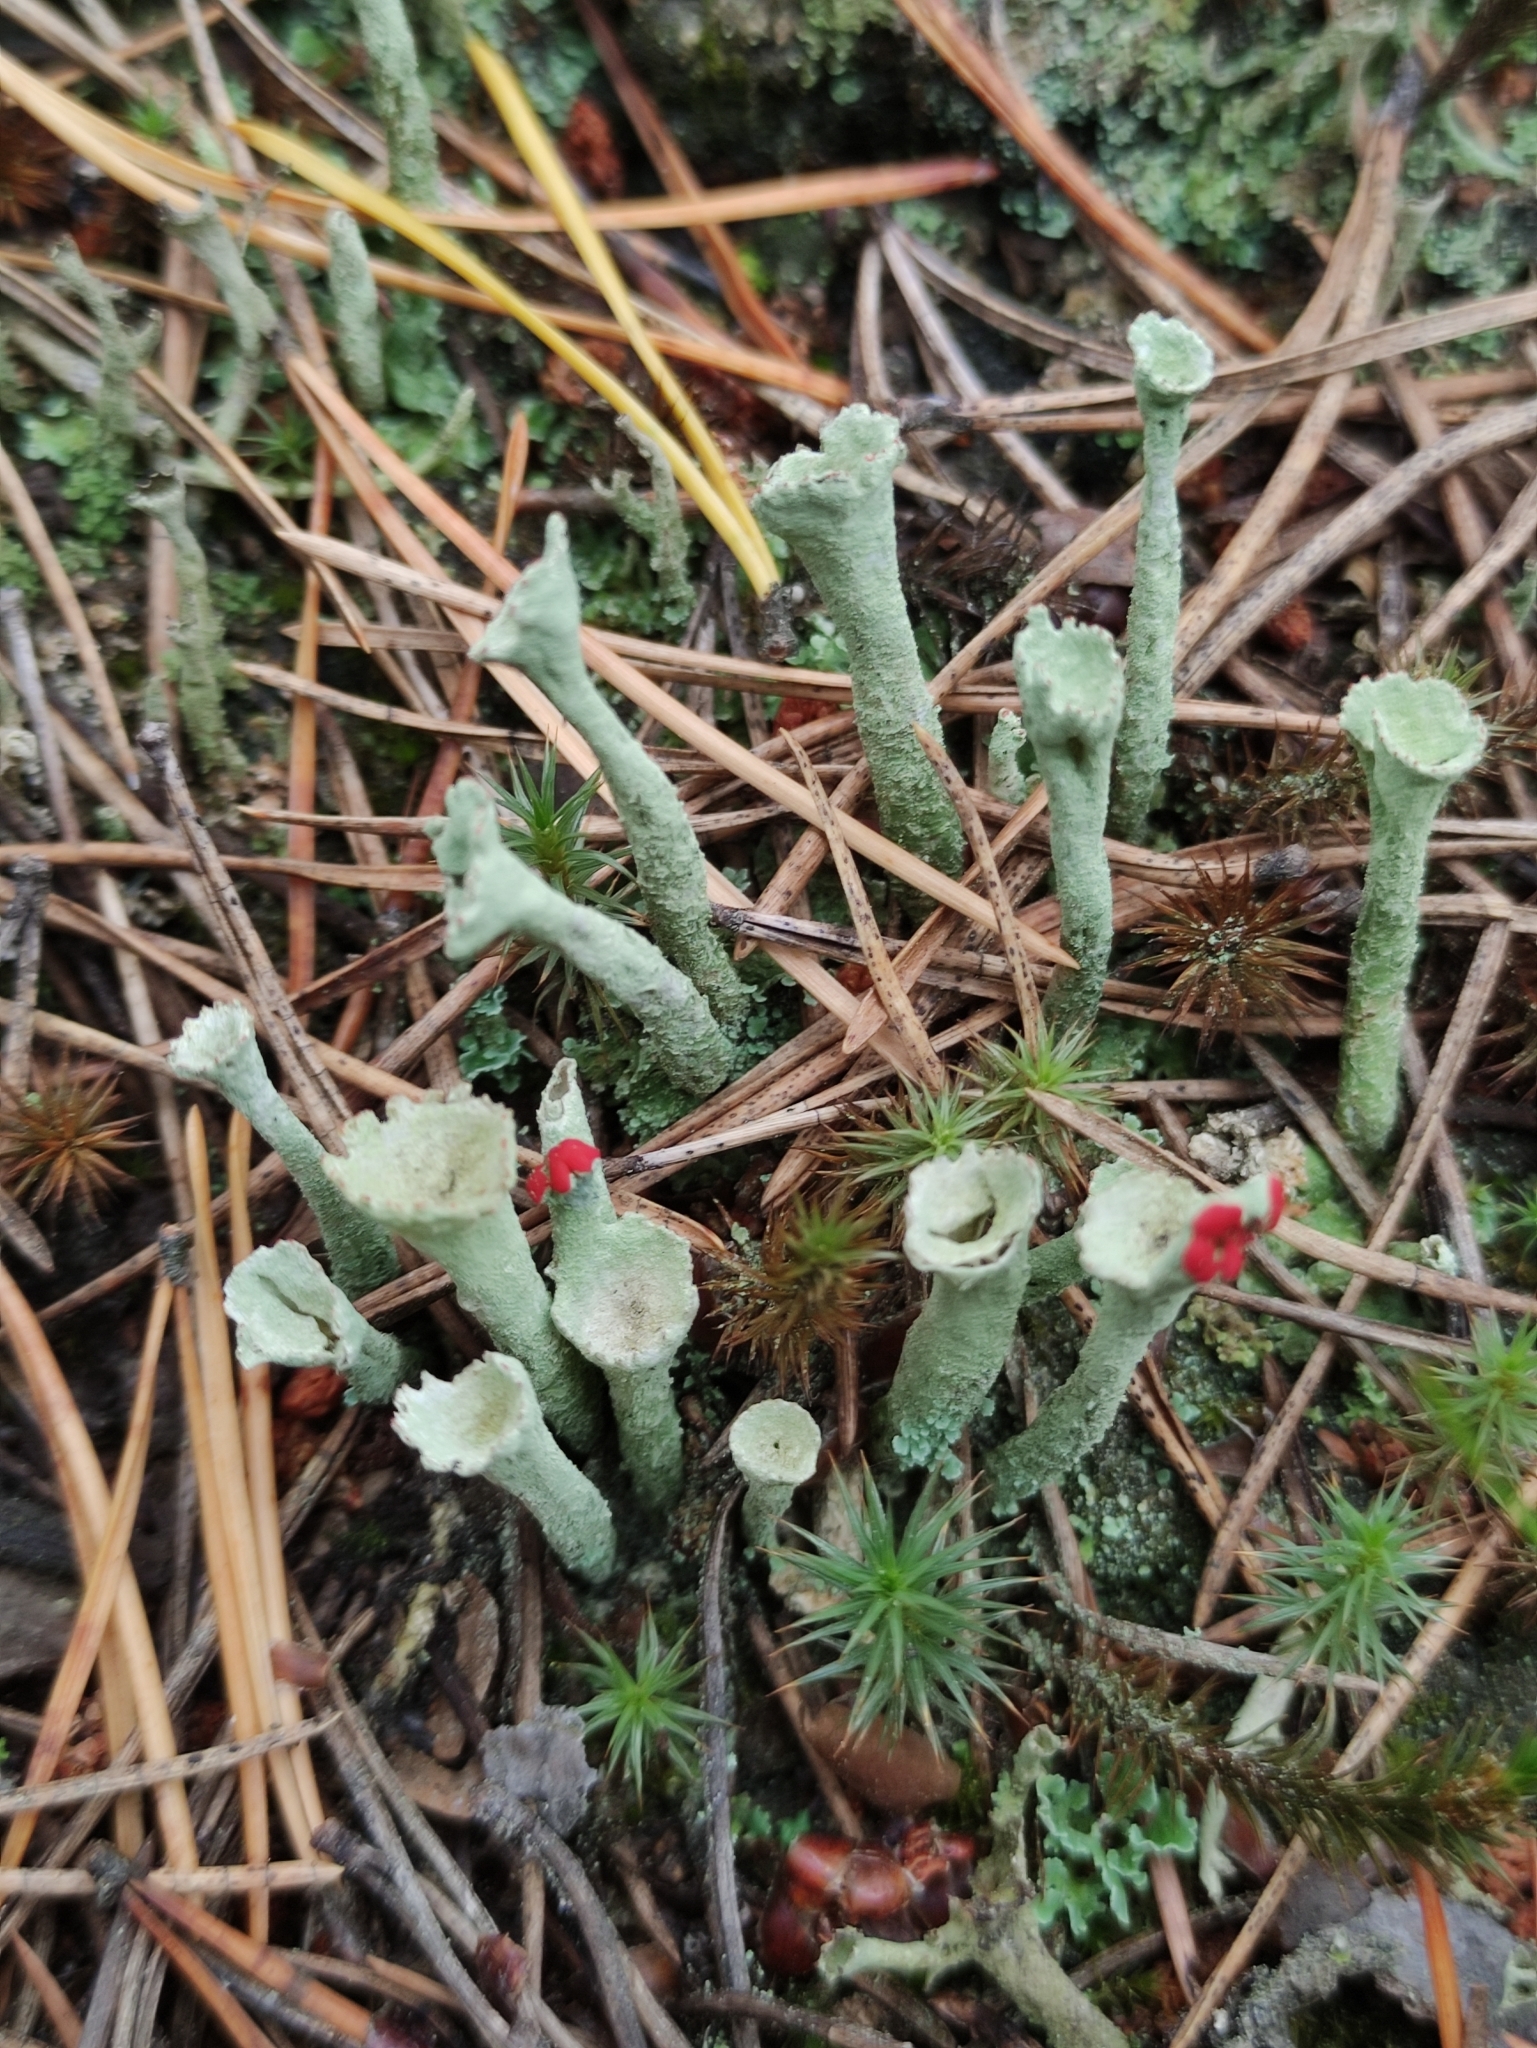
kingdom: Fungi
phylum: Ascomycota
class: Lecanoromycetes
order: Lecanorales
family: Cladoniaceae
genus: Cladonia
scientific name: Cladonia deformis
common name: Lesser sulphur-cup lichen
